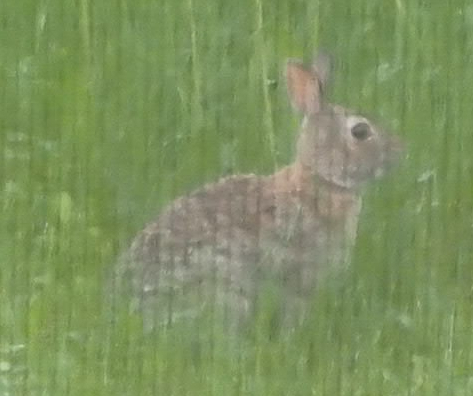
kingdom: Animalia
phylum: Chordata
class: Mammalia
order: Lagomorpha
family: Leporidae
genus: Sylvilagus
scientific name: Sylvilagus floridanus
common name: Eastern cottontail
